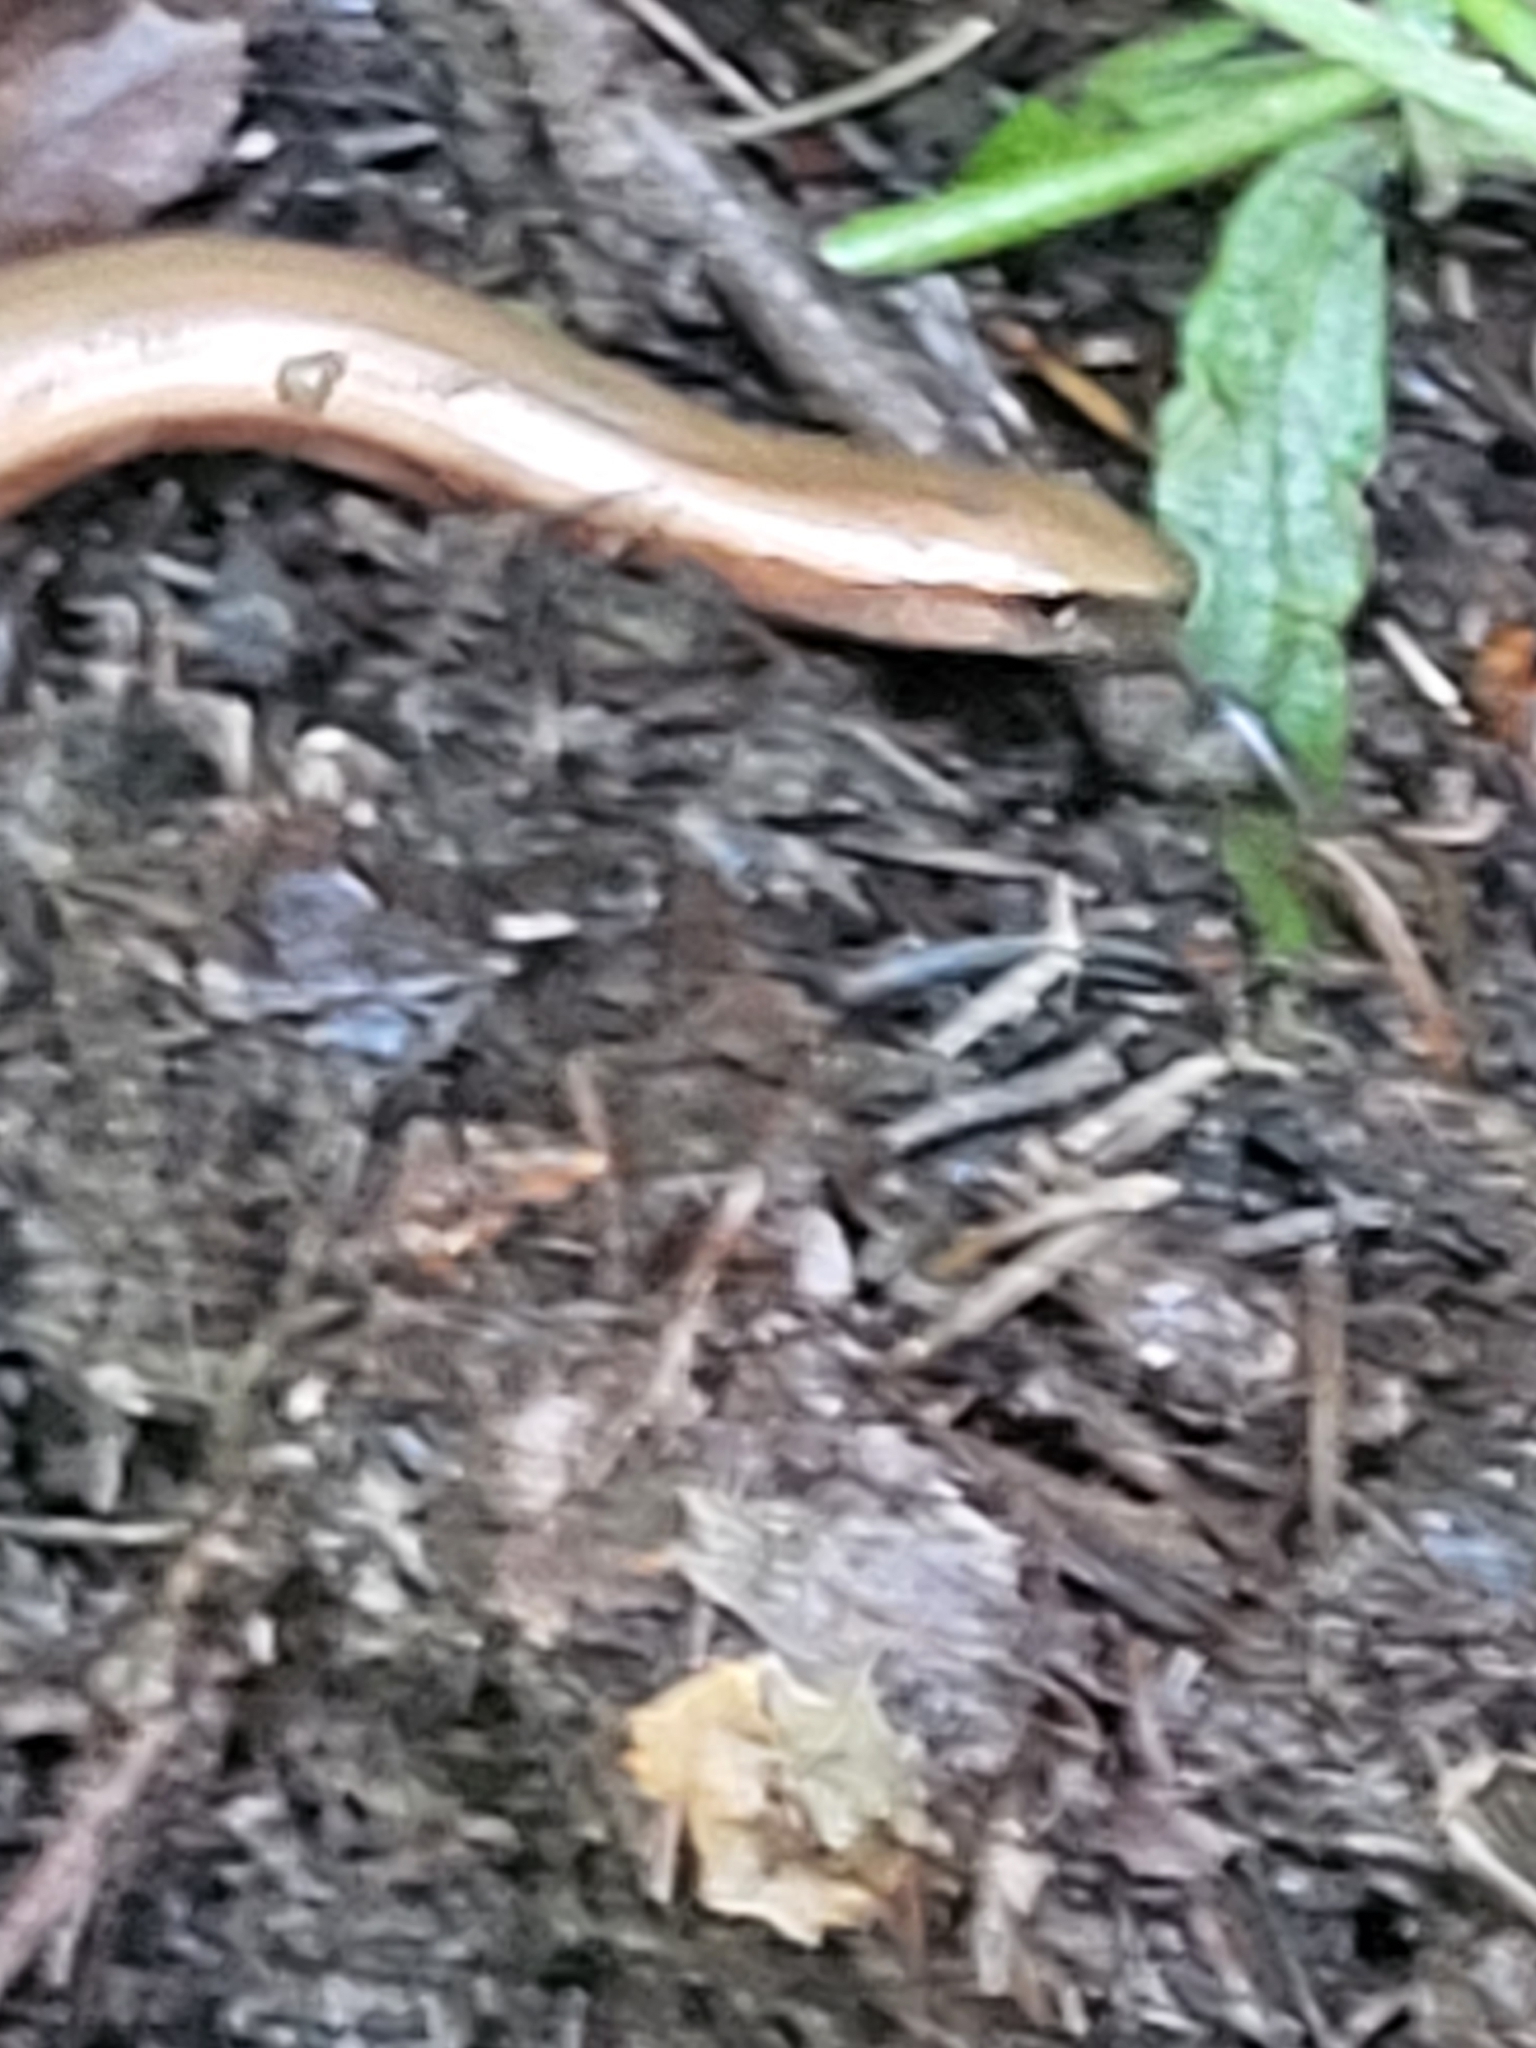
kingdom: Animalia
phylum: Chordata
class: Squamata
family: Anguidae
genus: Anguis
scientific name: Anguis fragilis
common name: Slow worm
